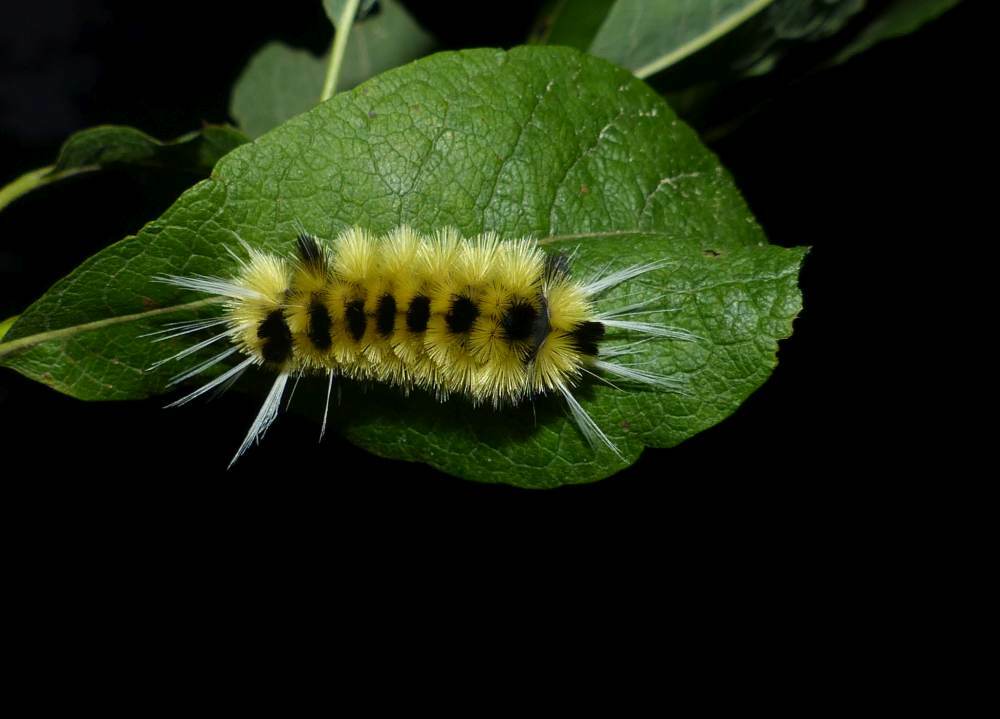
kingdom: Animalia
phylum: Arthropoda
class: Insecta
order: Lepidoptera
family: Erebidae
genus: Lophocampa
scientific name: Lophocampa maculata
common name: Spotted tussock moth
